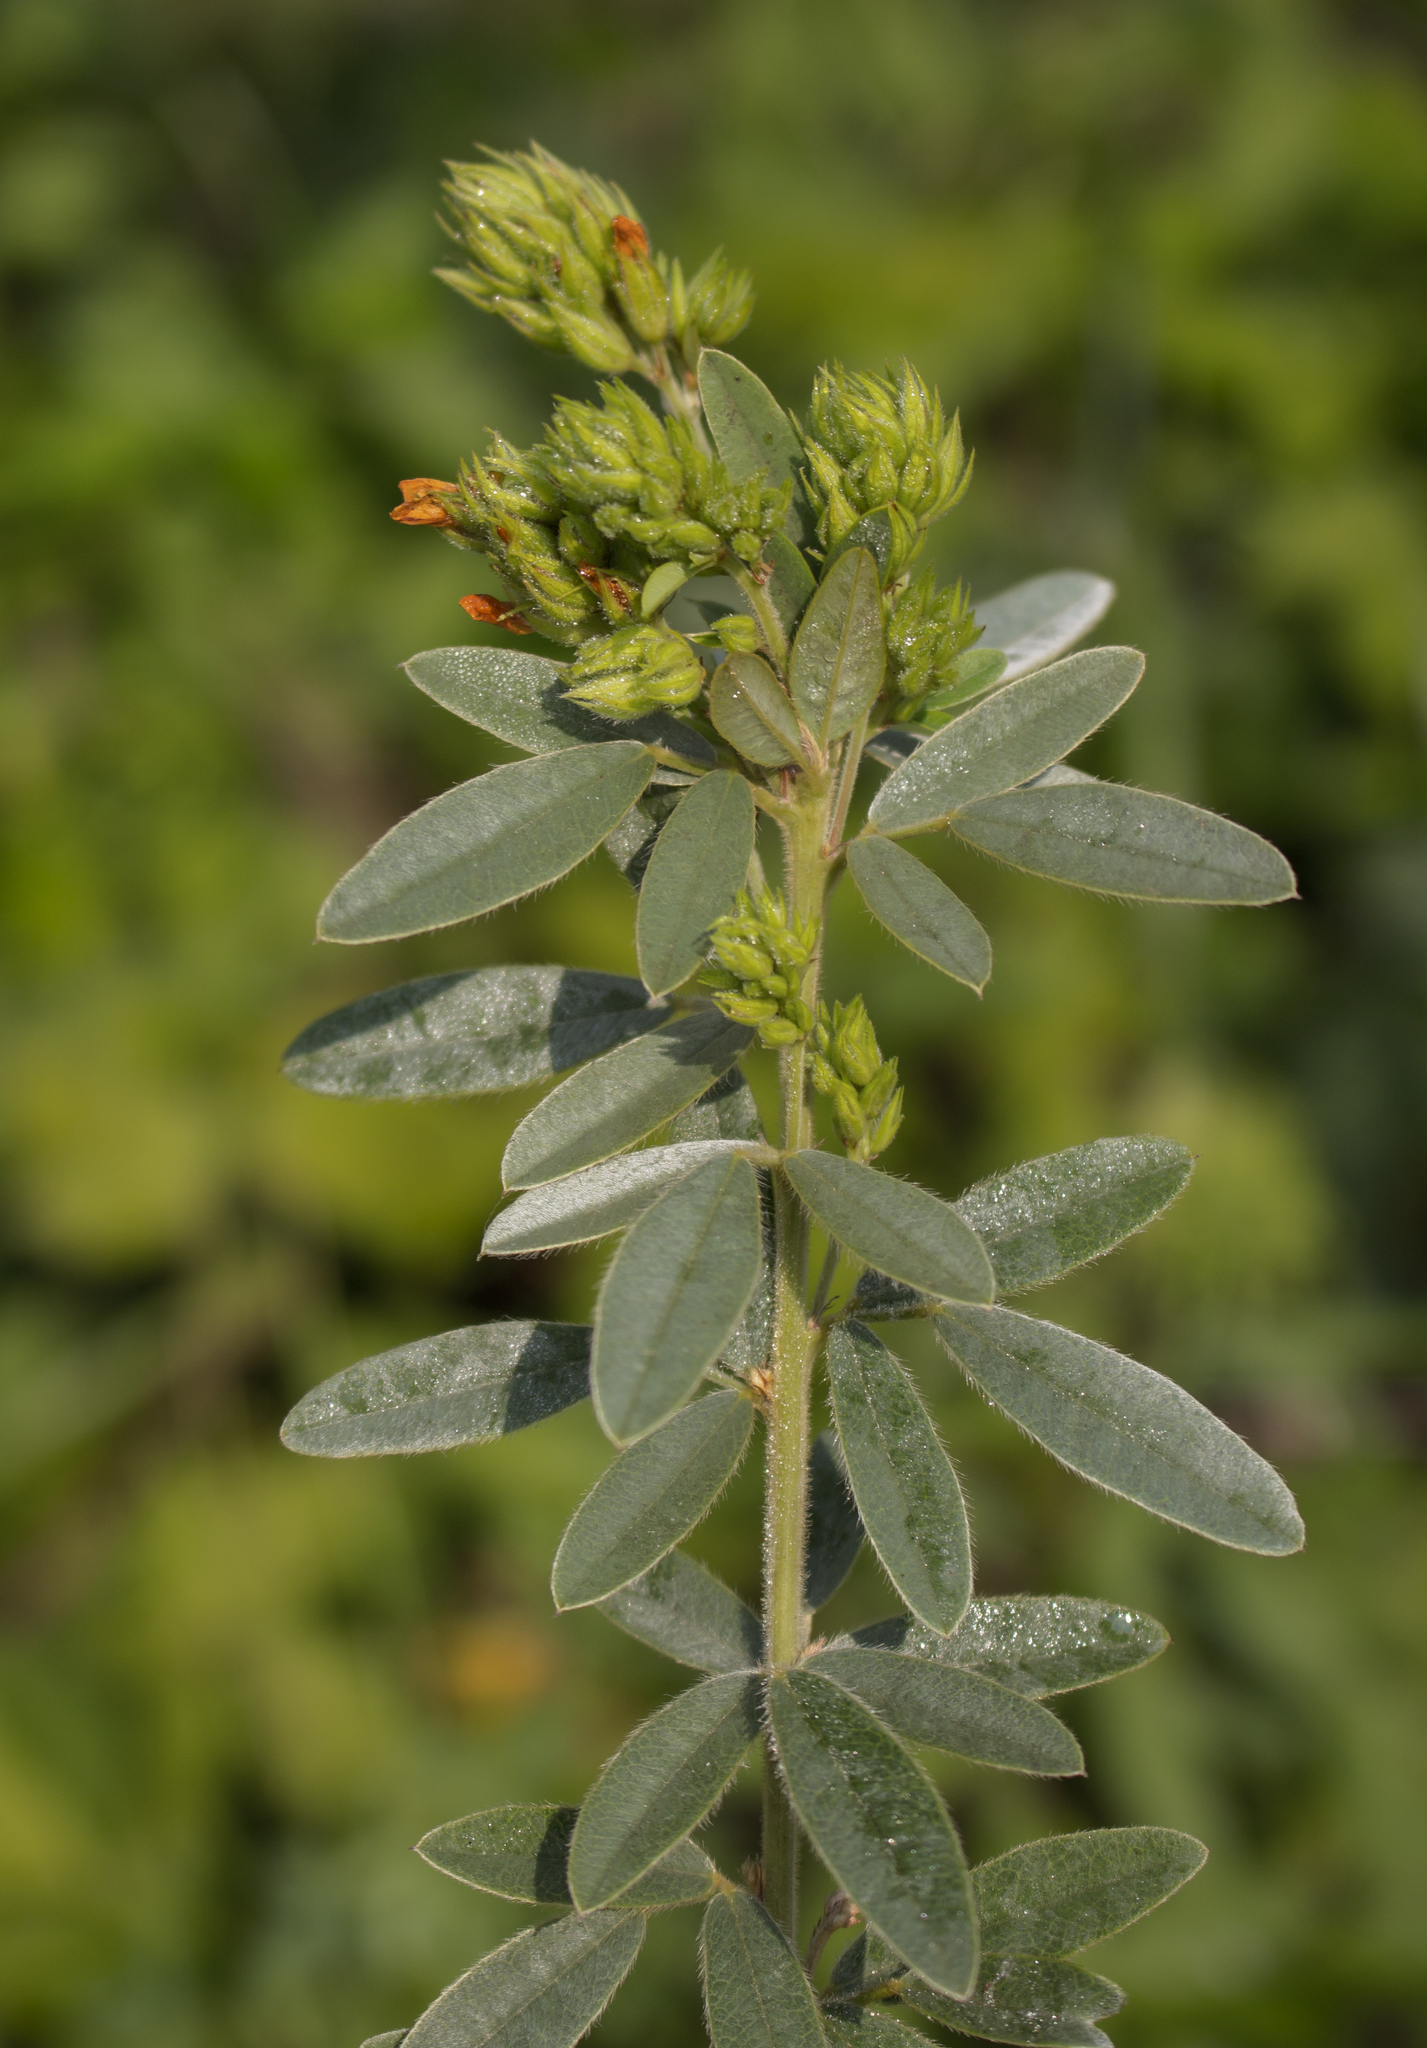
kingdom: Plantae
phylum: Tracheophyta
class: Magnoliopsida
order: Fabales
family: Fabaceae
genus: Lespedeza
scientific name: Lespedeza capitata
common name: Dusty clover
